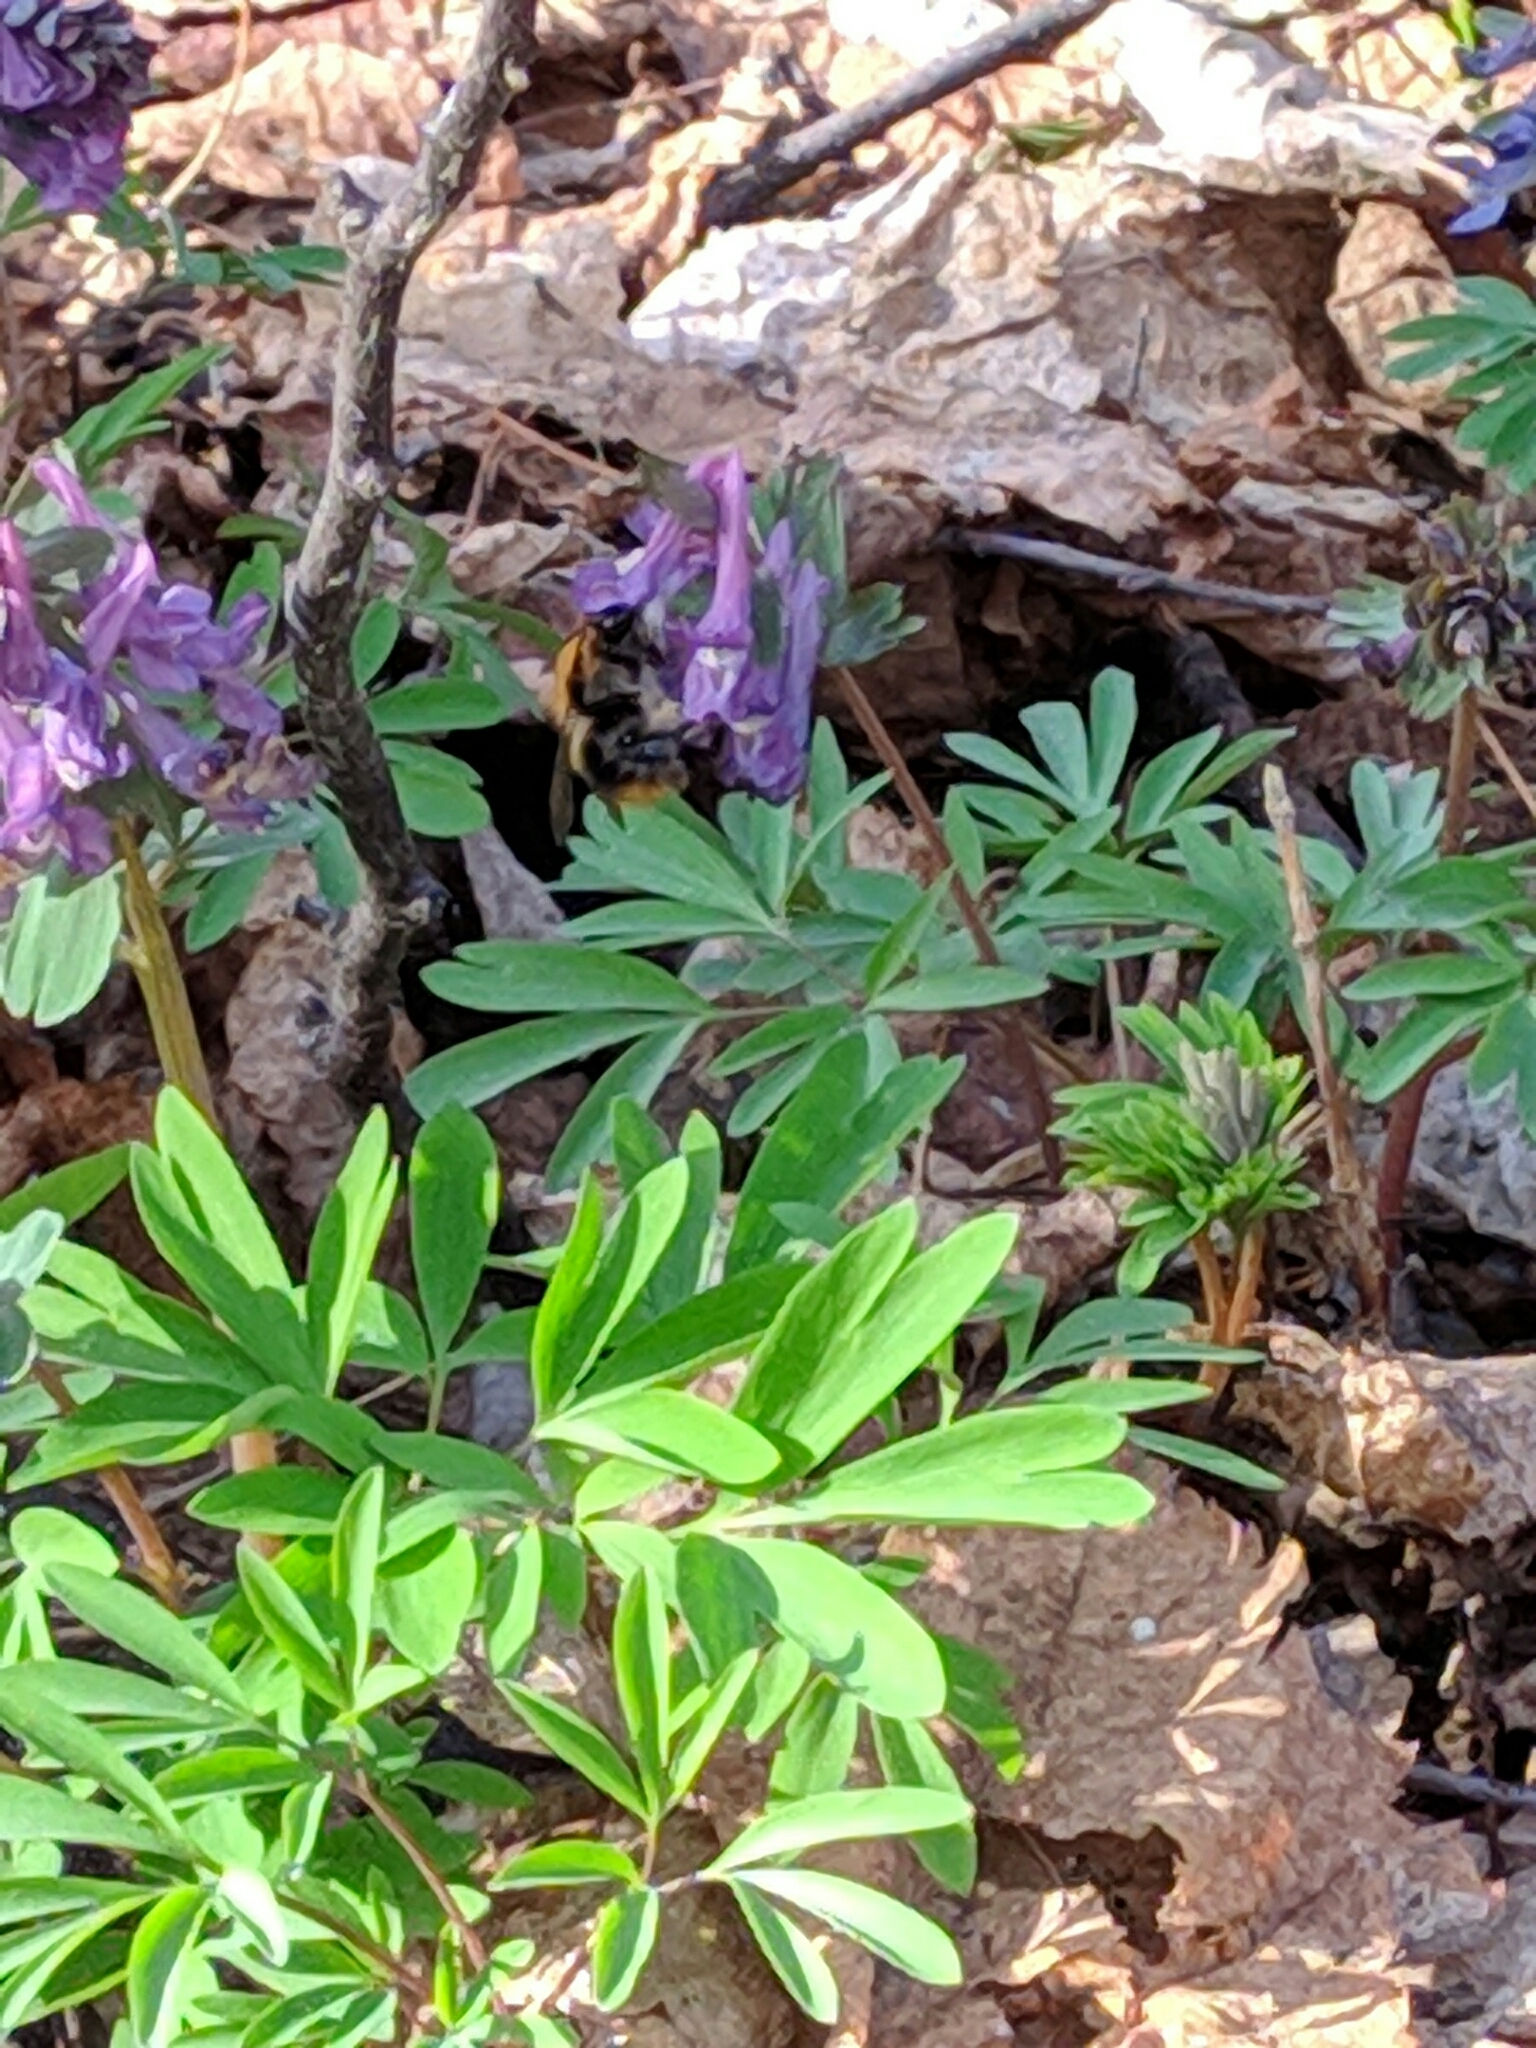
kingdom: Animalia
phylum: Arthropoda
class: Insecta
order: Hymenoptera
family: Apidae
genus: Bombus
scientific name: Bombus pascuorum
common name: Common carder bee
